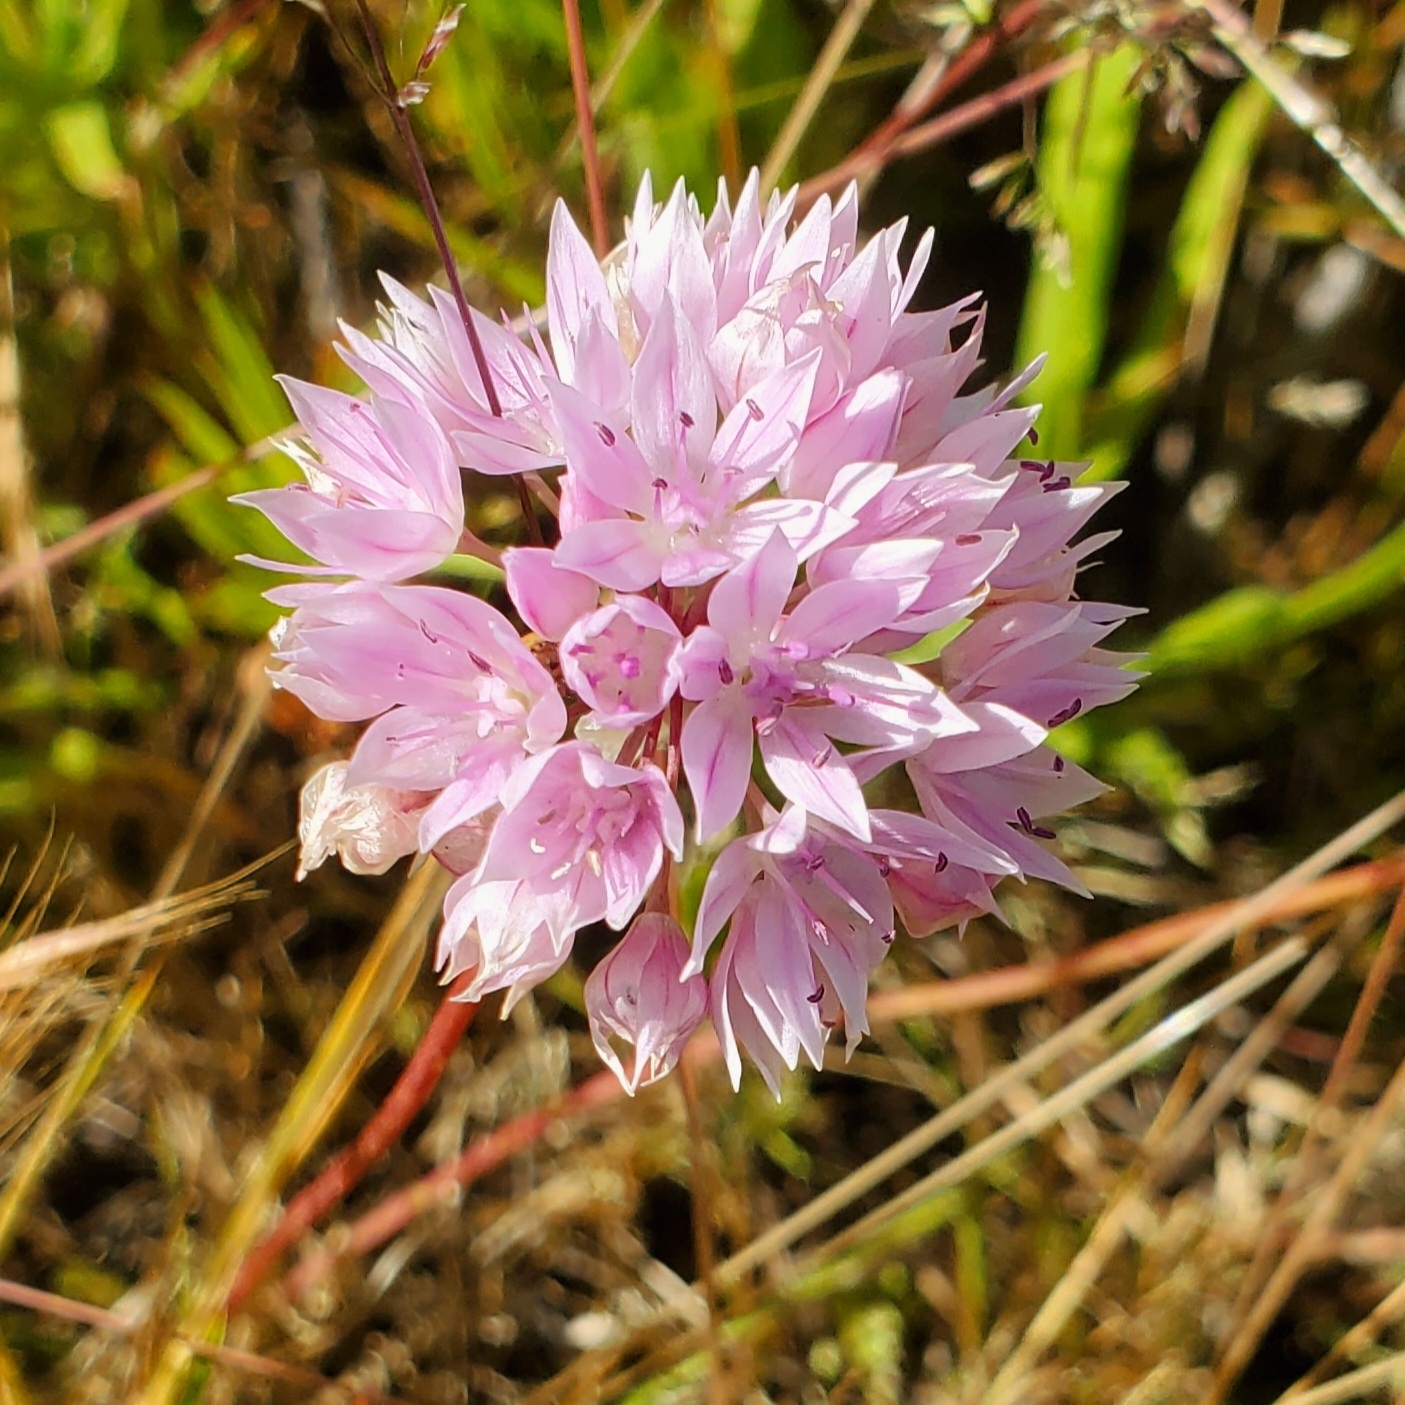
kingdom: Plantae
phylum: Tracheophyta
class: Liliopsida
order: Asparagales
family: Amaryllidaceae
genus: Allium
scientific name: Allium amplectens
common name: Narrow-leaved onion
